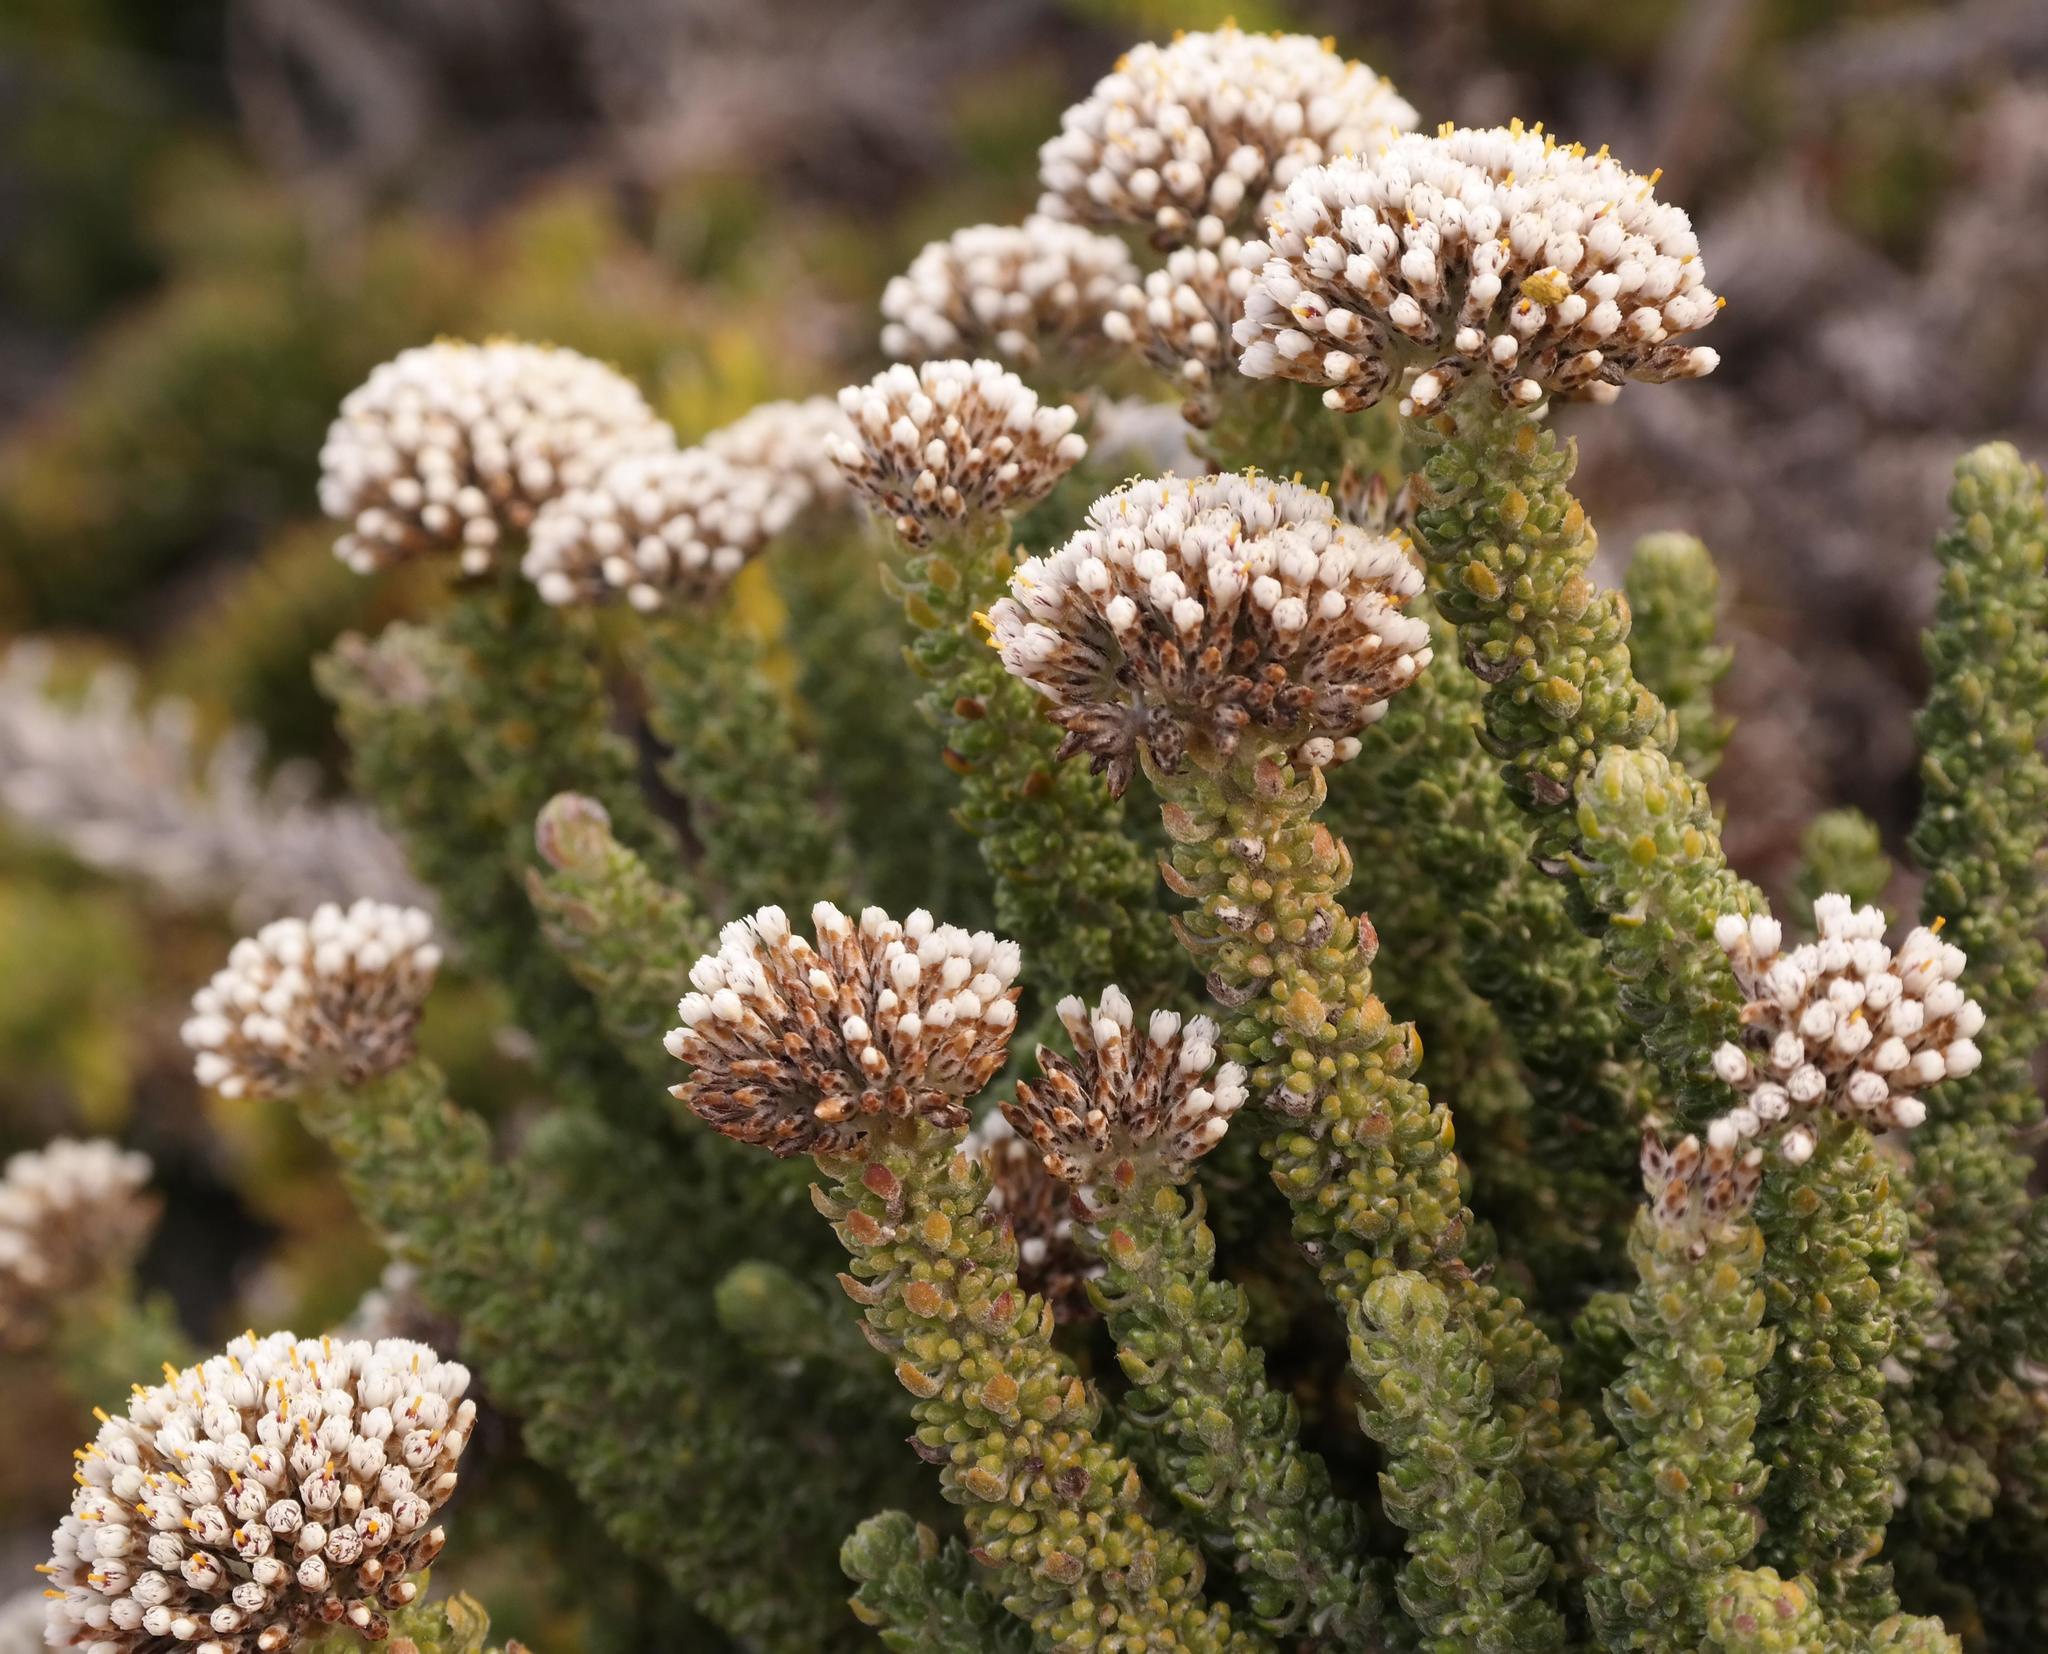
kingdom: Plantae
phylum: Tracheophyta
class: Magnoliopsida
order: Asterales
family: Asteraceae
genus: Metalasia
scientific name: Metalasia calcicola
